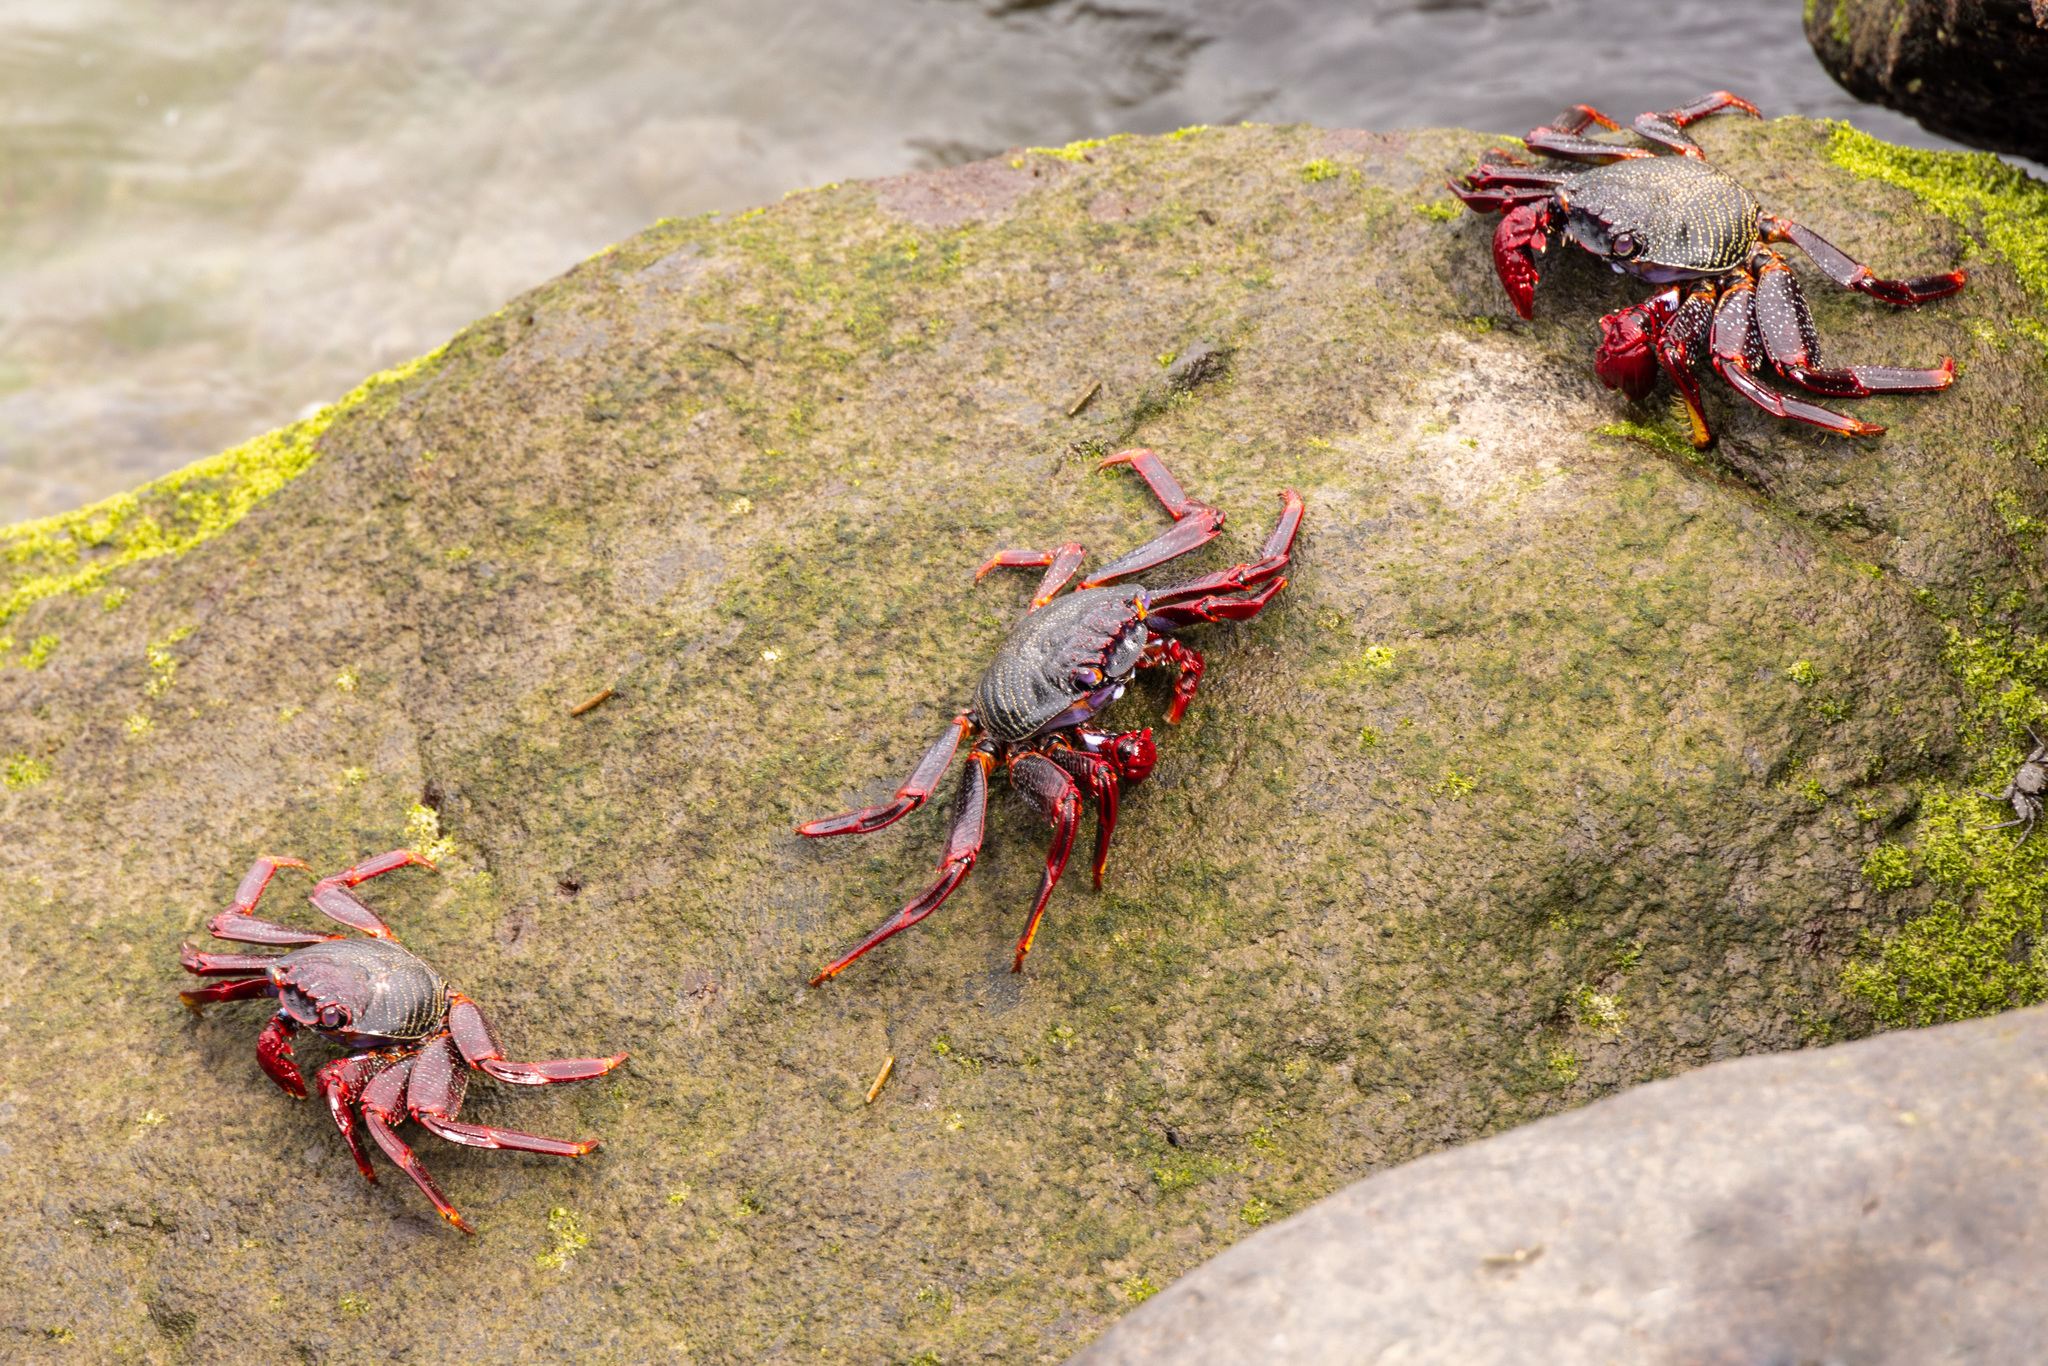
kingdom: Animalia
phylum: Arthropoda
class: Malacostraca
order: Decapoda
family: Grapsidae
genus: Grapsus
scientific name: Grapsus adscensionis
